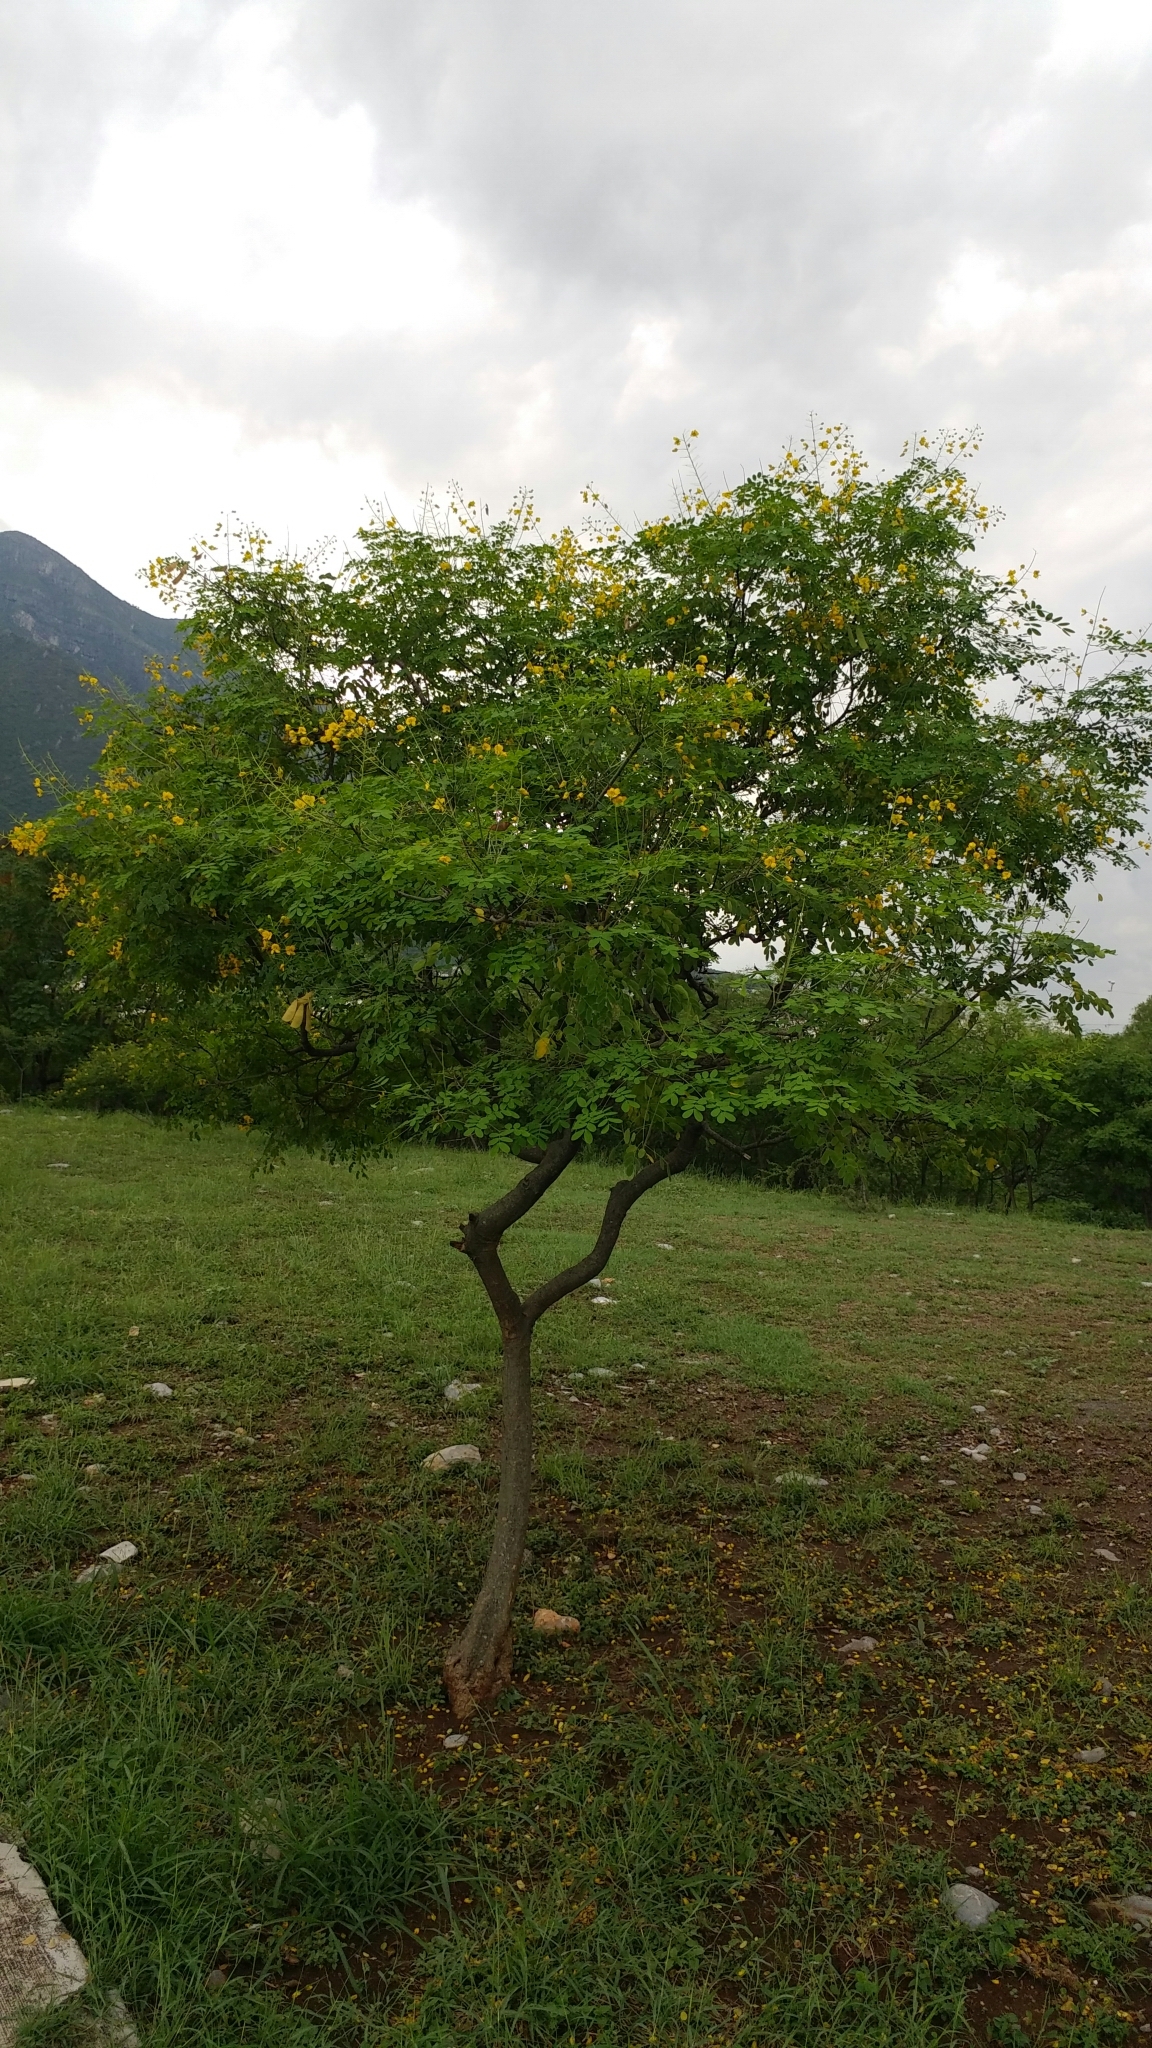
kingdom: Plantae
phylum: Tracheophyta
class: Magnoliopsida
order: Fabales
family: Fabaceae
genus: Erythrostemon
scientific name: Erythrostemon mexicanus
